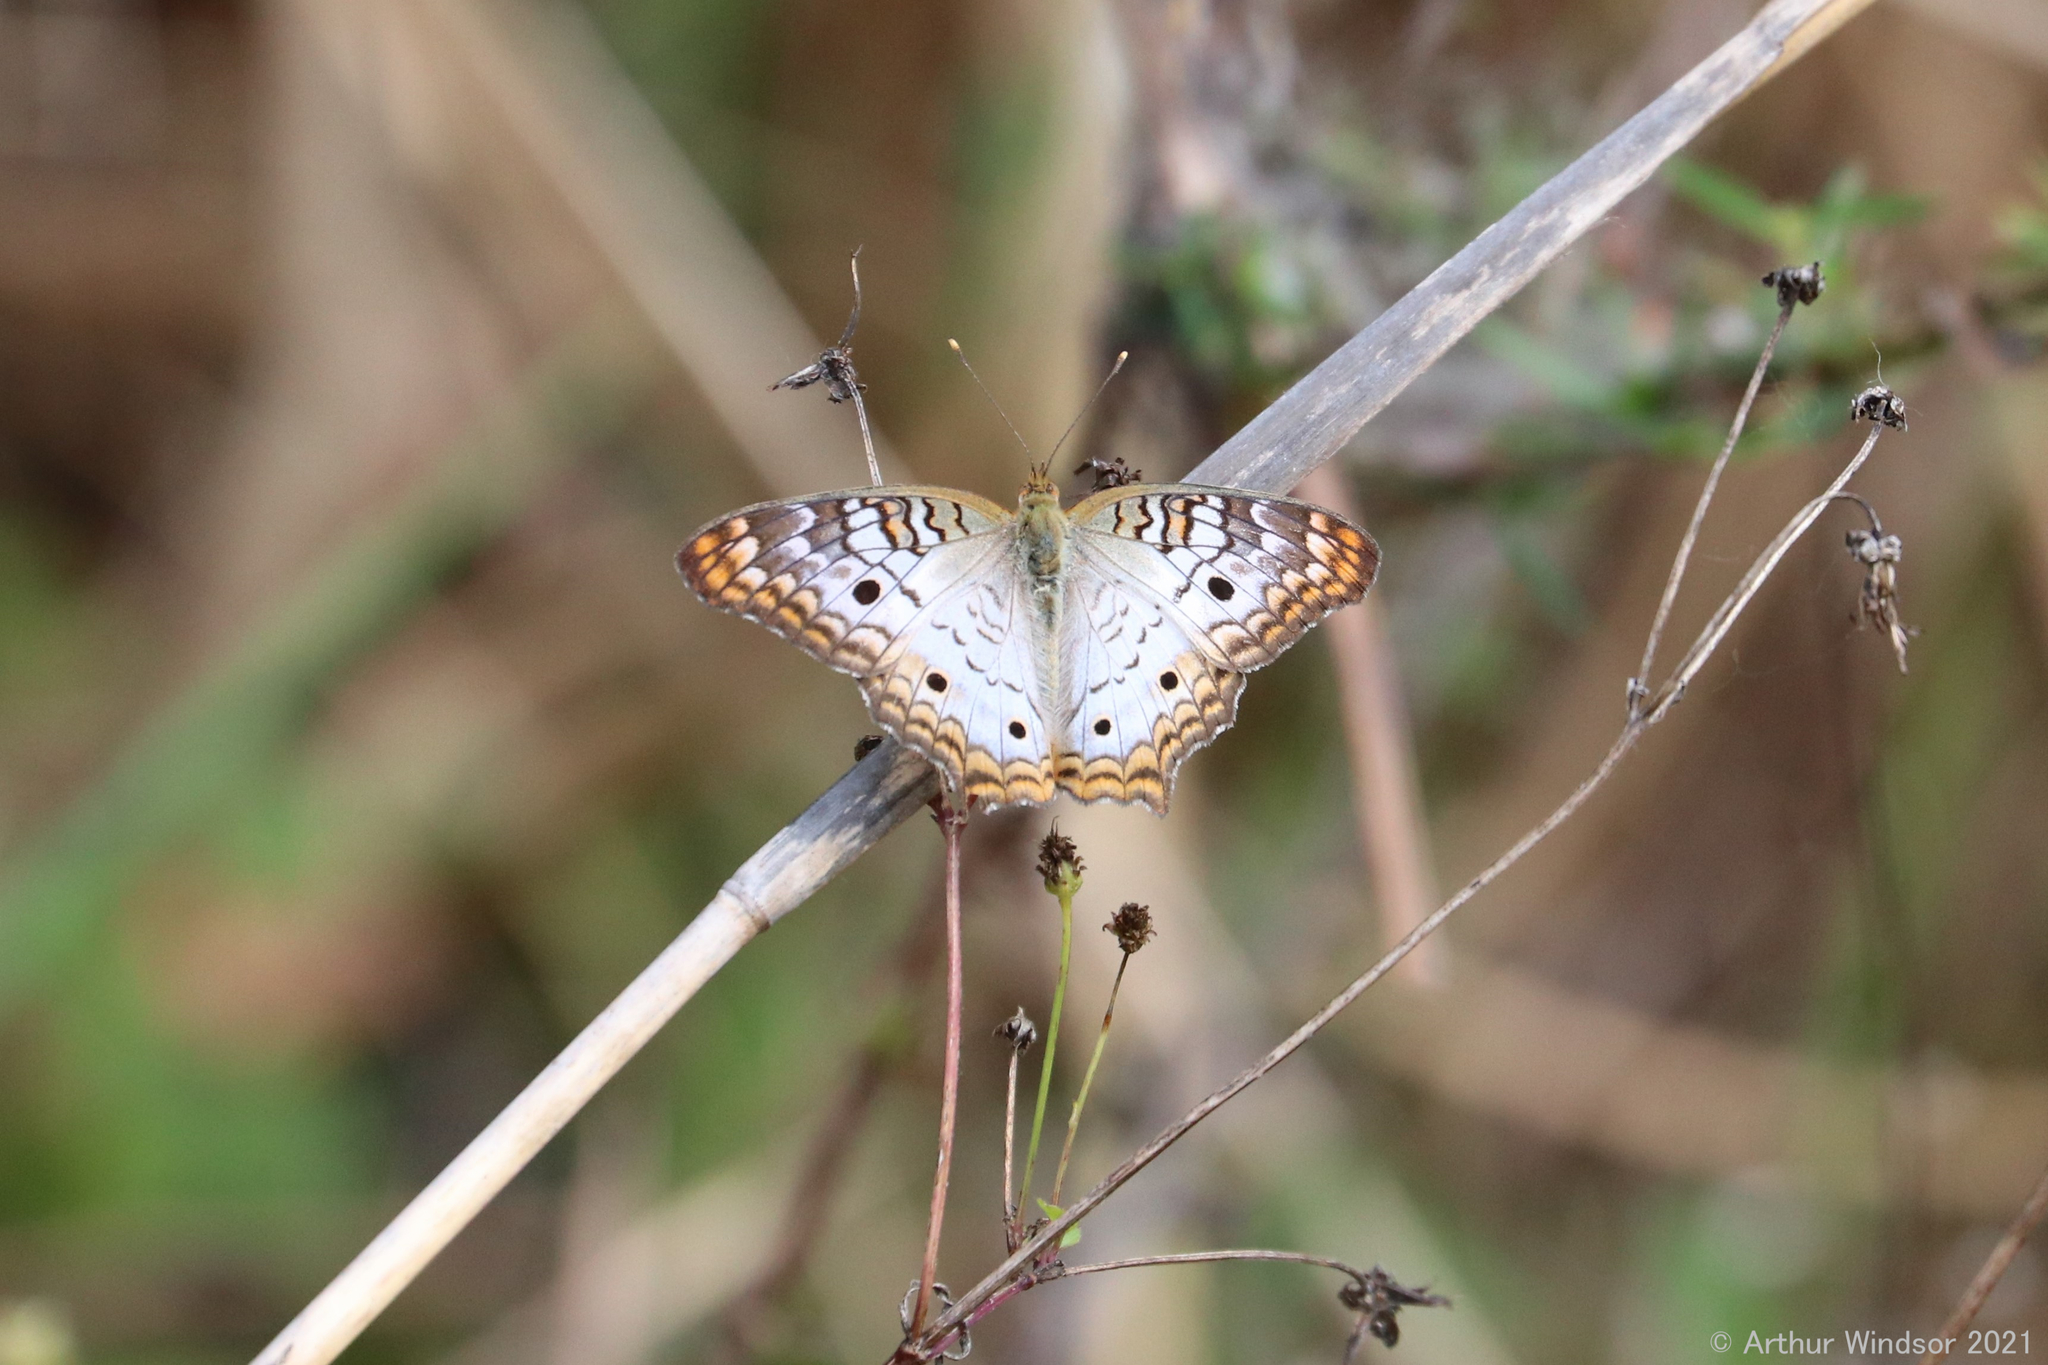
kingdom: Animalia
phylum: Arthropoda
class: Insecta
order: Lepidoptera
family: Nymphalidae
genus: Anartia
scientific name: Anartia jatrophae
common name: White peacock
